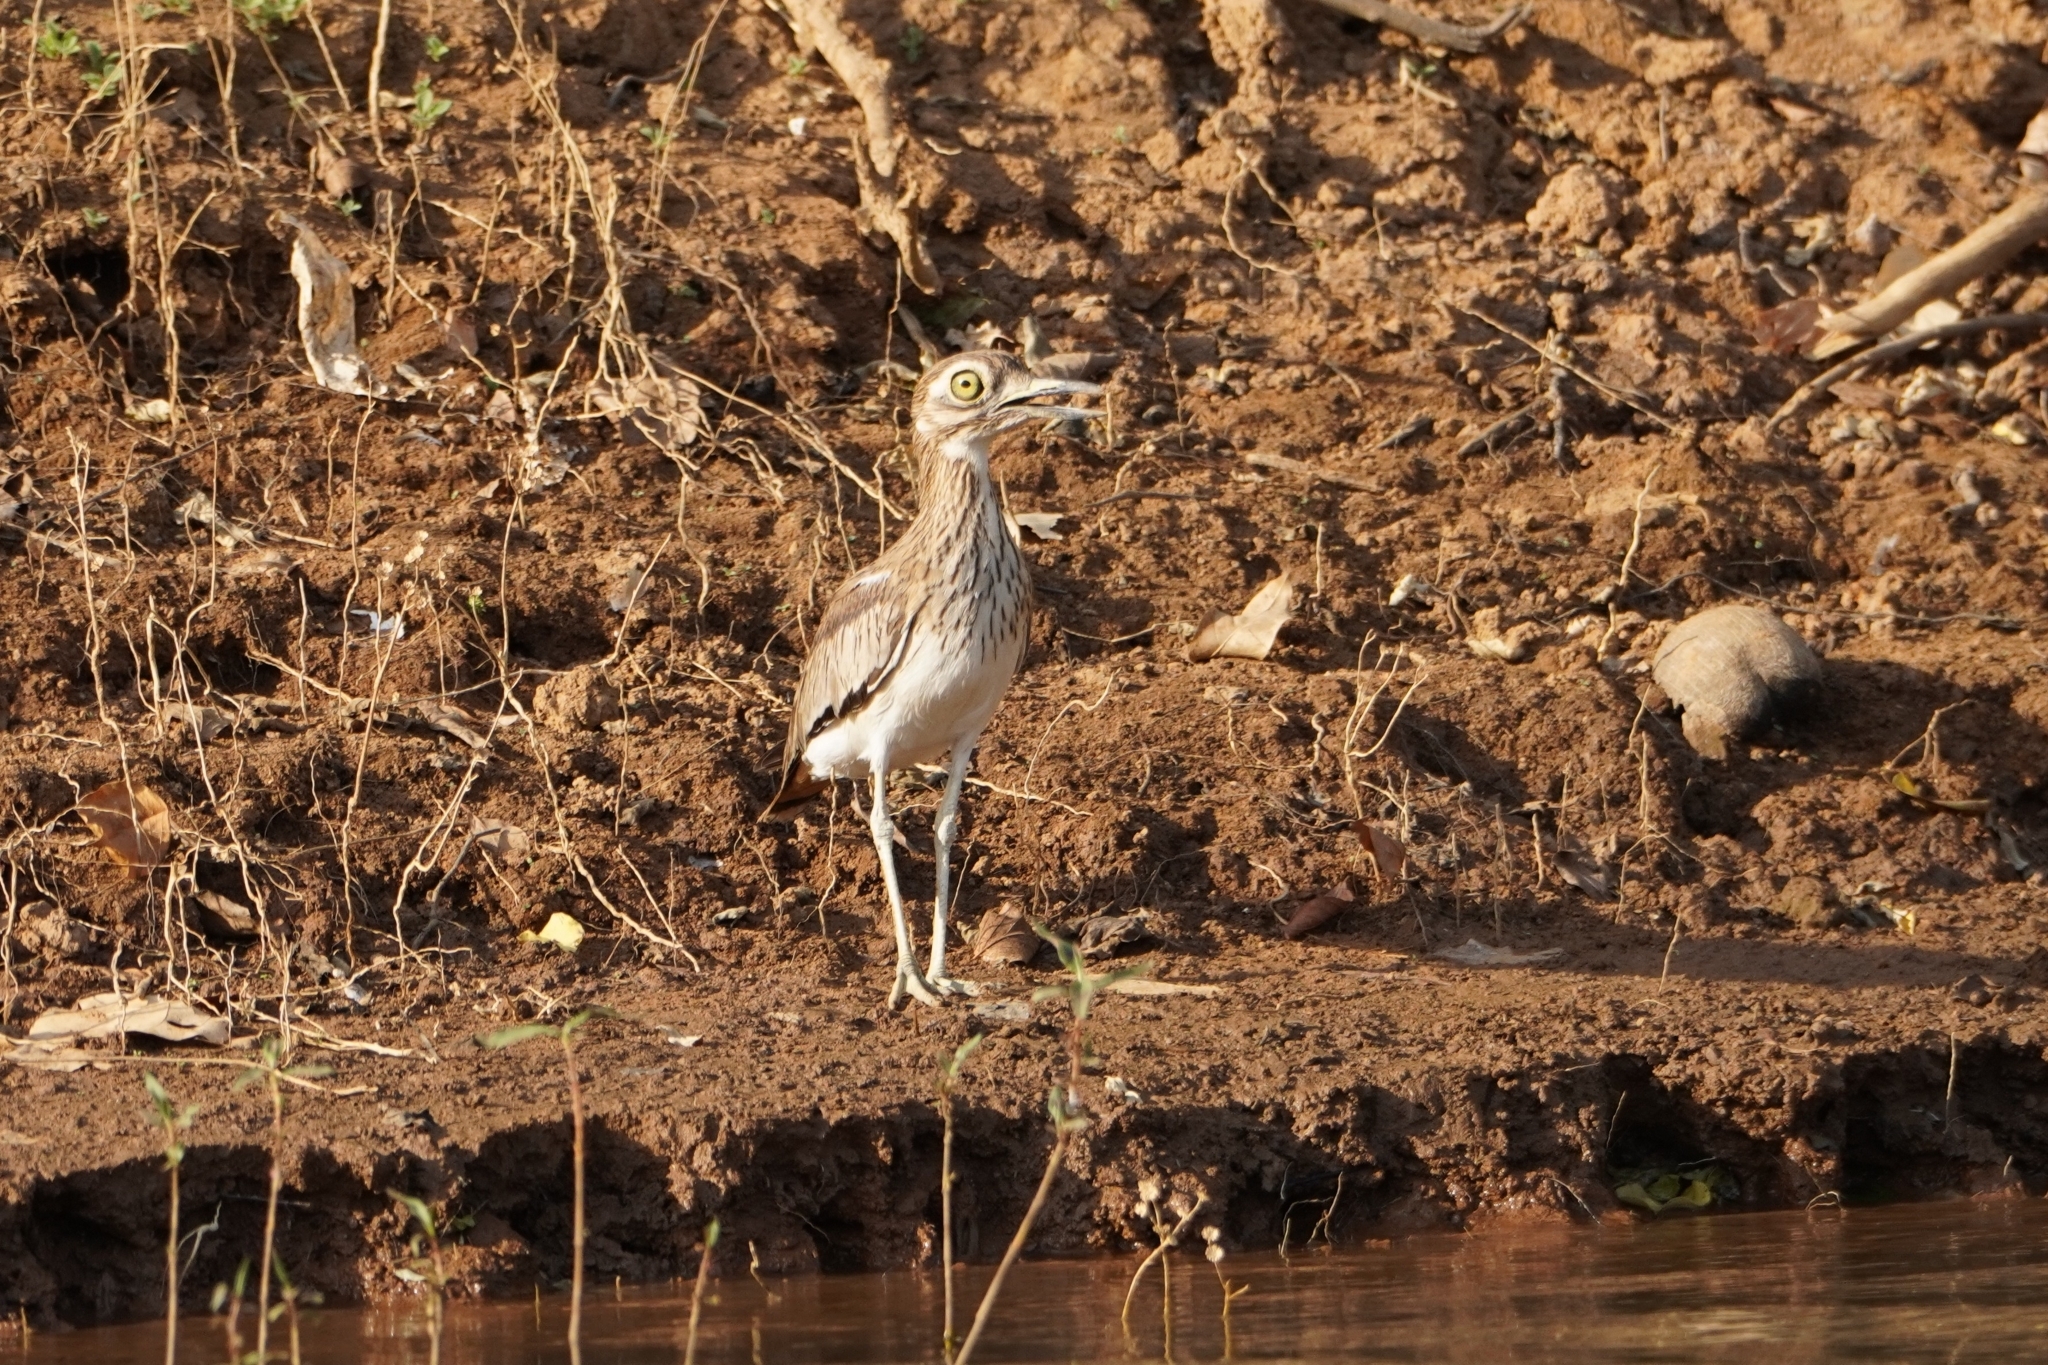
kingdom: Animalia
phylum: Chordata
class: Aves
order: Charadriiformes
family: Burhinidae
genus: Burhinus
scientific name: Burhinus senegalensis
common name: Senegal thick-knee
